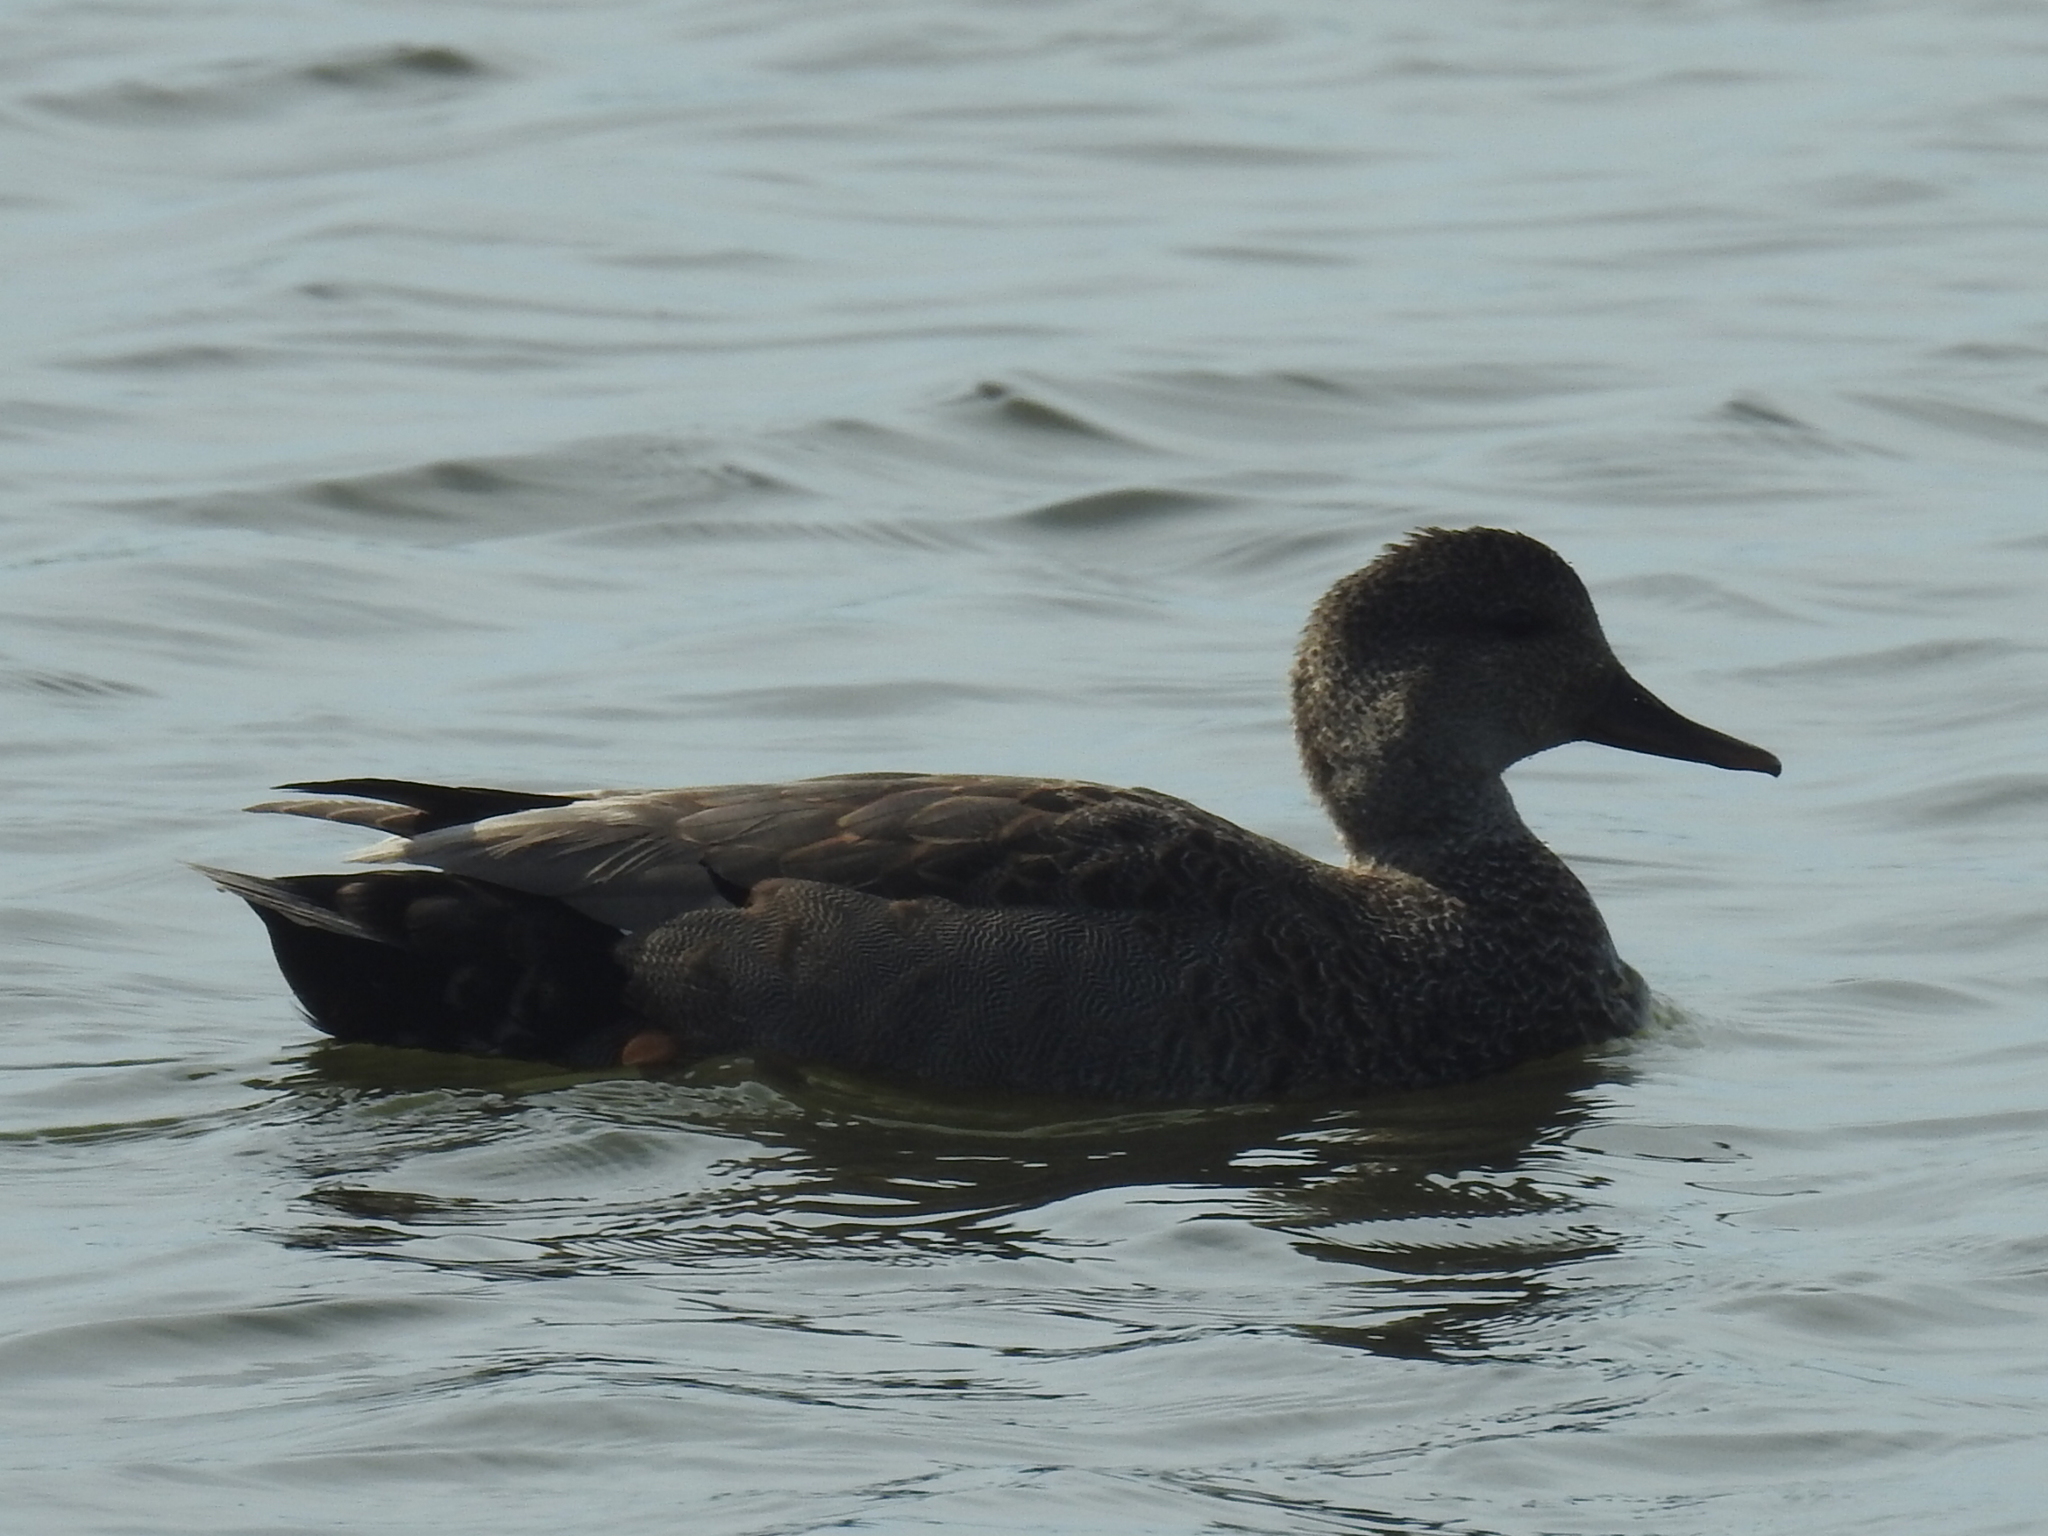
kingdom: Animalia
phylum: Chordata
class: Aves
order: Anseriformes
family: Anatidae
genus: Mareca
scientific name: Mareca strepera
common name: Gadwall
